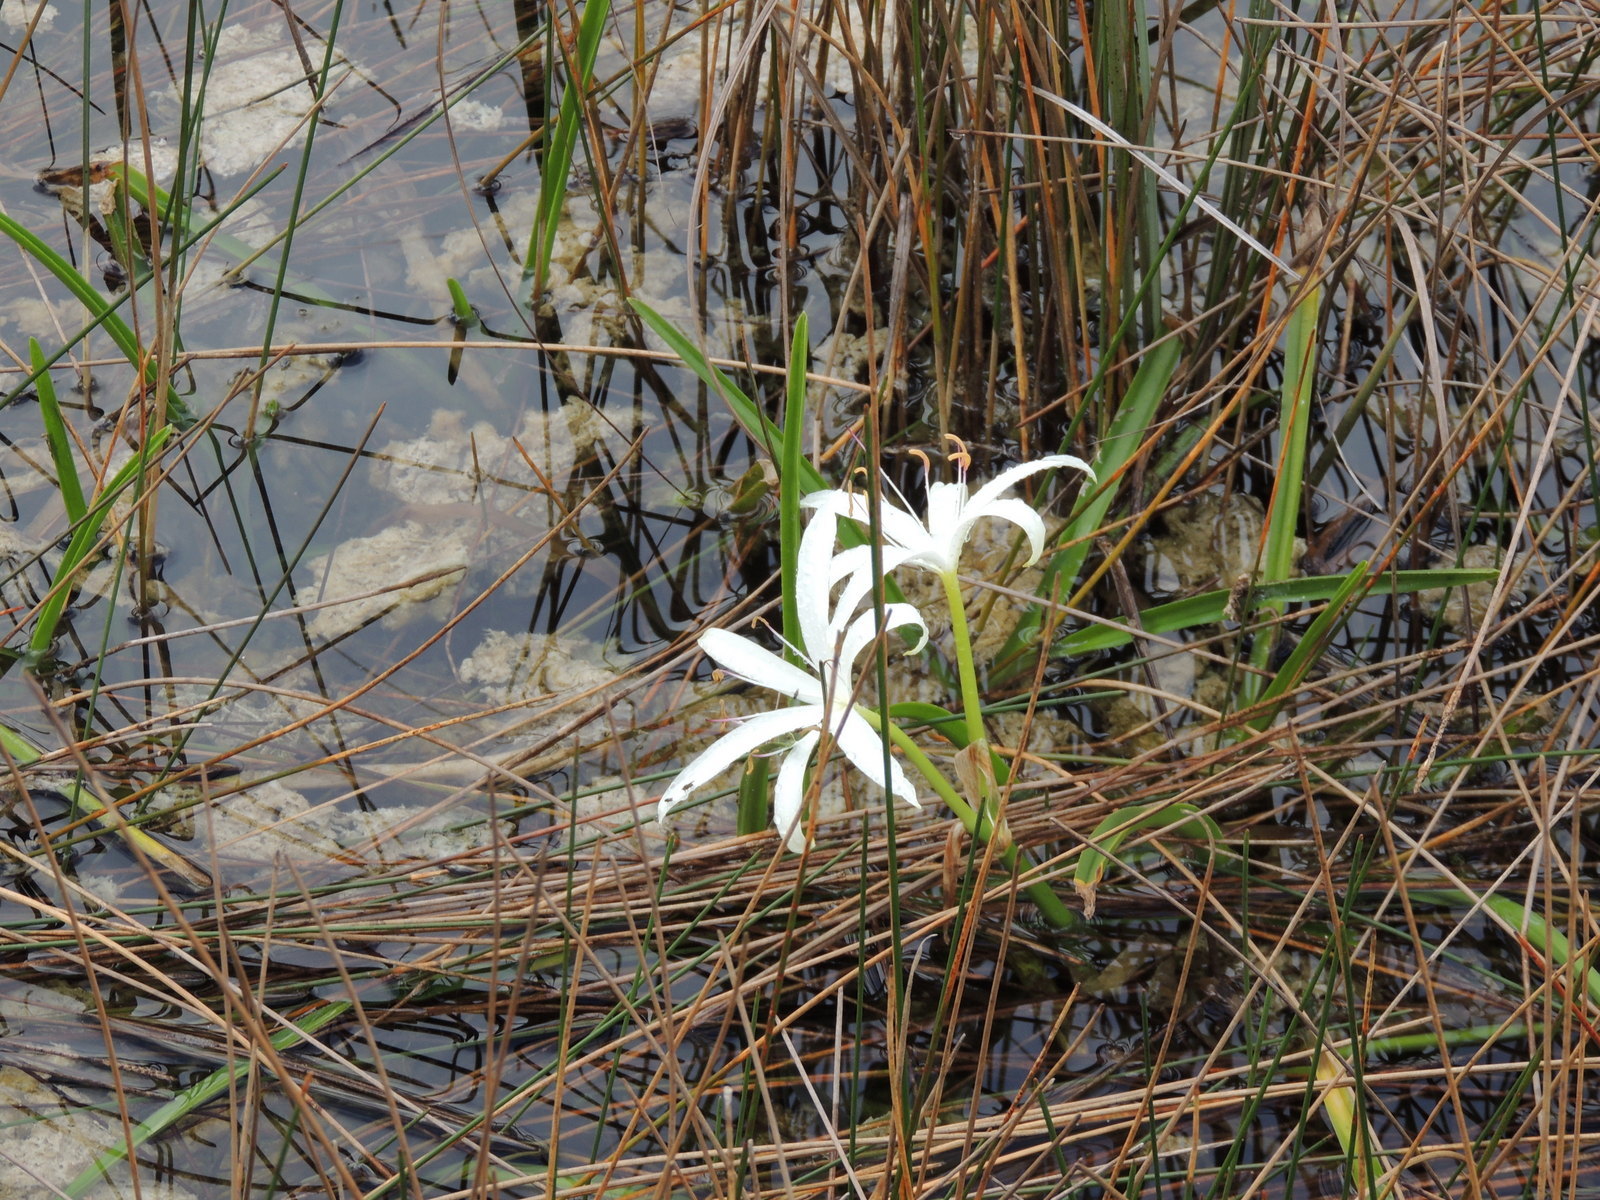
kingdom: Plantae
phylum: Tracheophyta
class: Liliopsida
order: Asparagales
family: Amaryllidaceae
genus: Crinum
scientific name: Crinum americanum
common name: Florida swamp-lily
